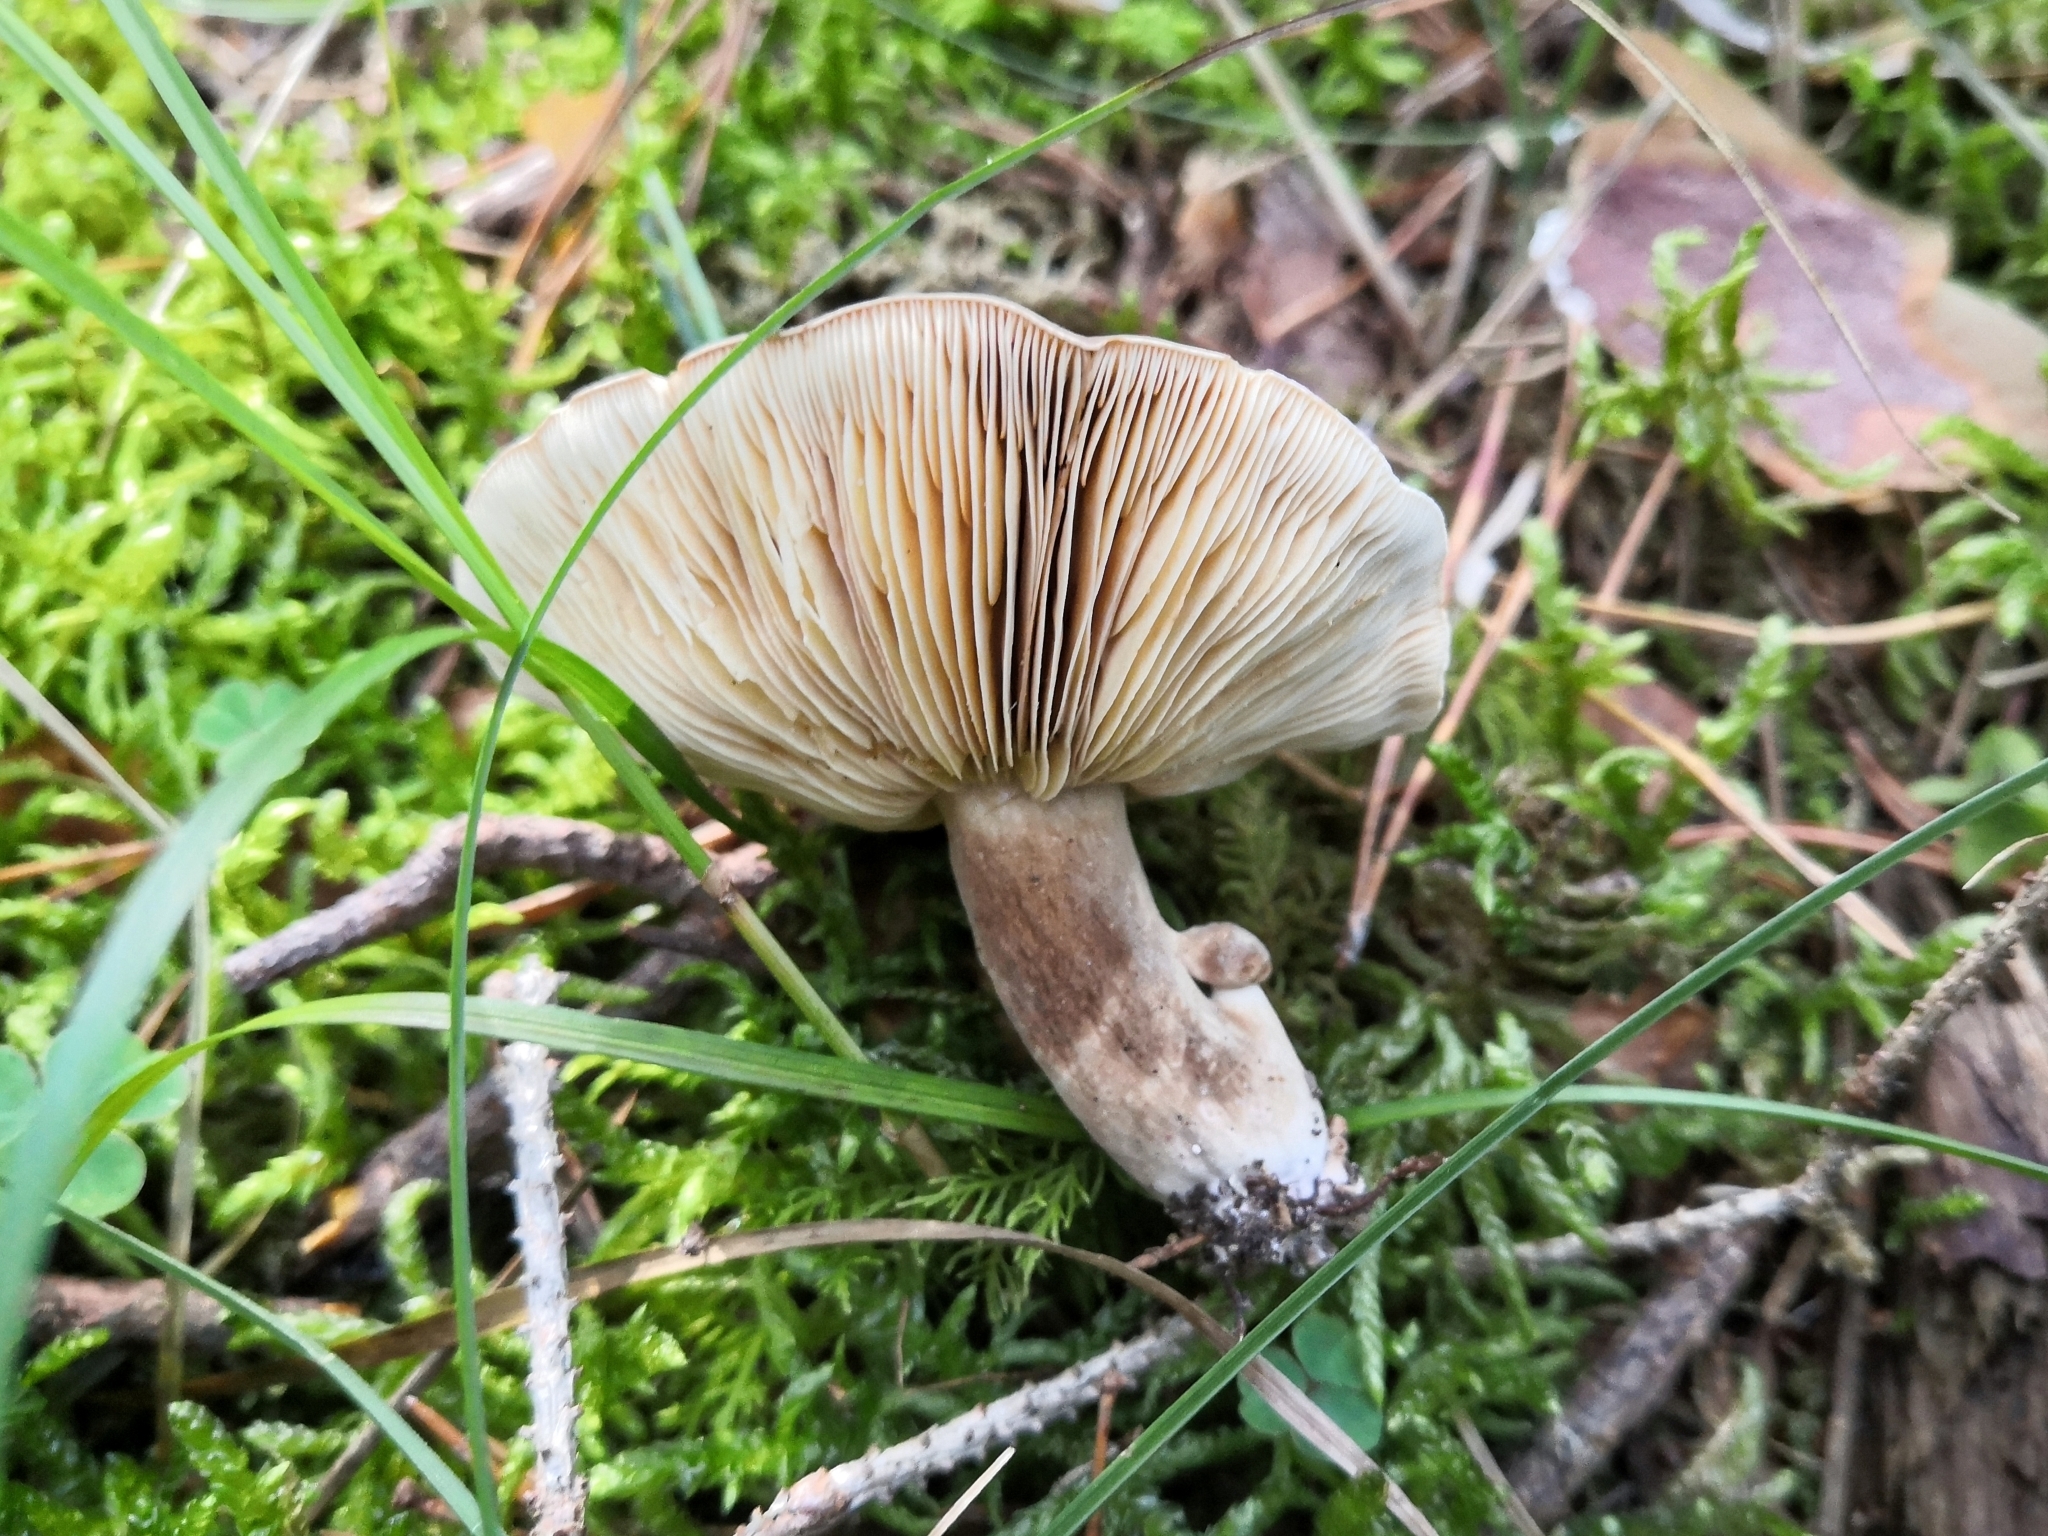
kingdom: Fungi
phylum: Basidiomycota
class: Agaricomycetes
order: Russulales
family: Russulaceae
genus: Lactarius
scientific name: Lactarius picinus
